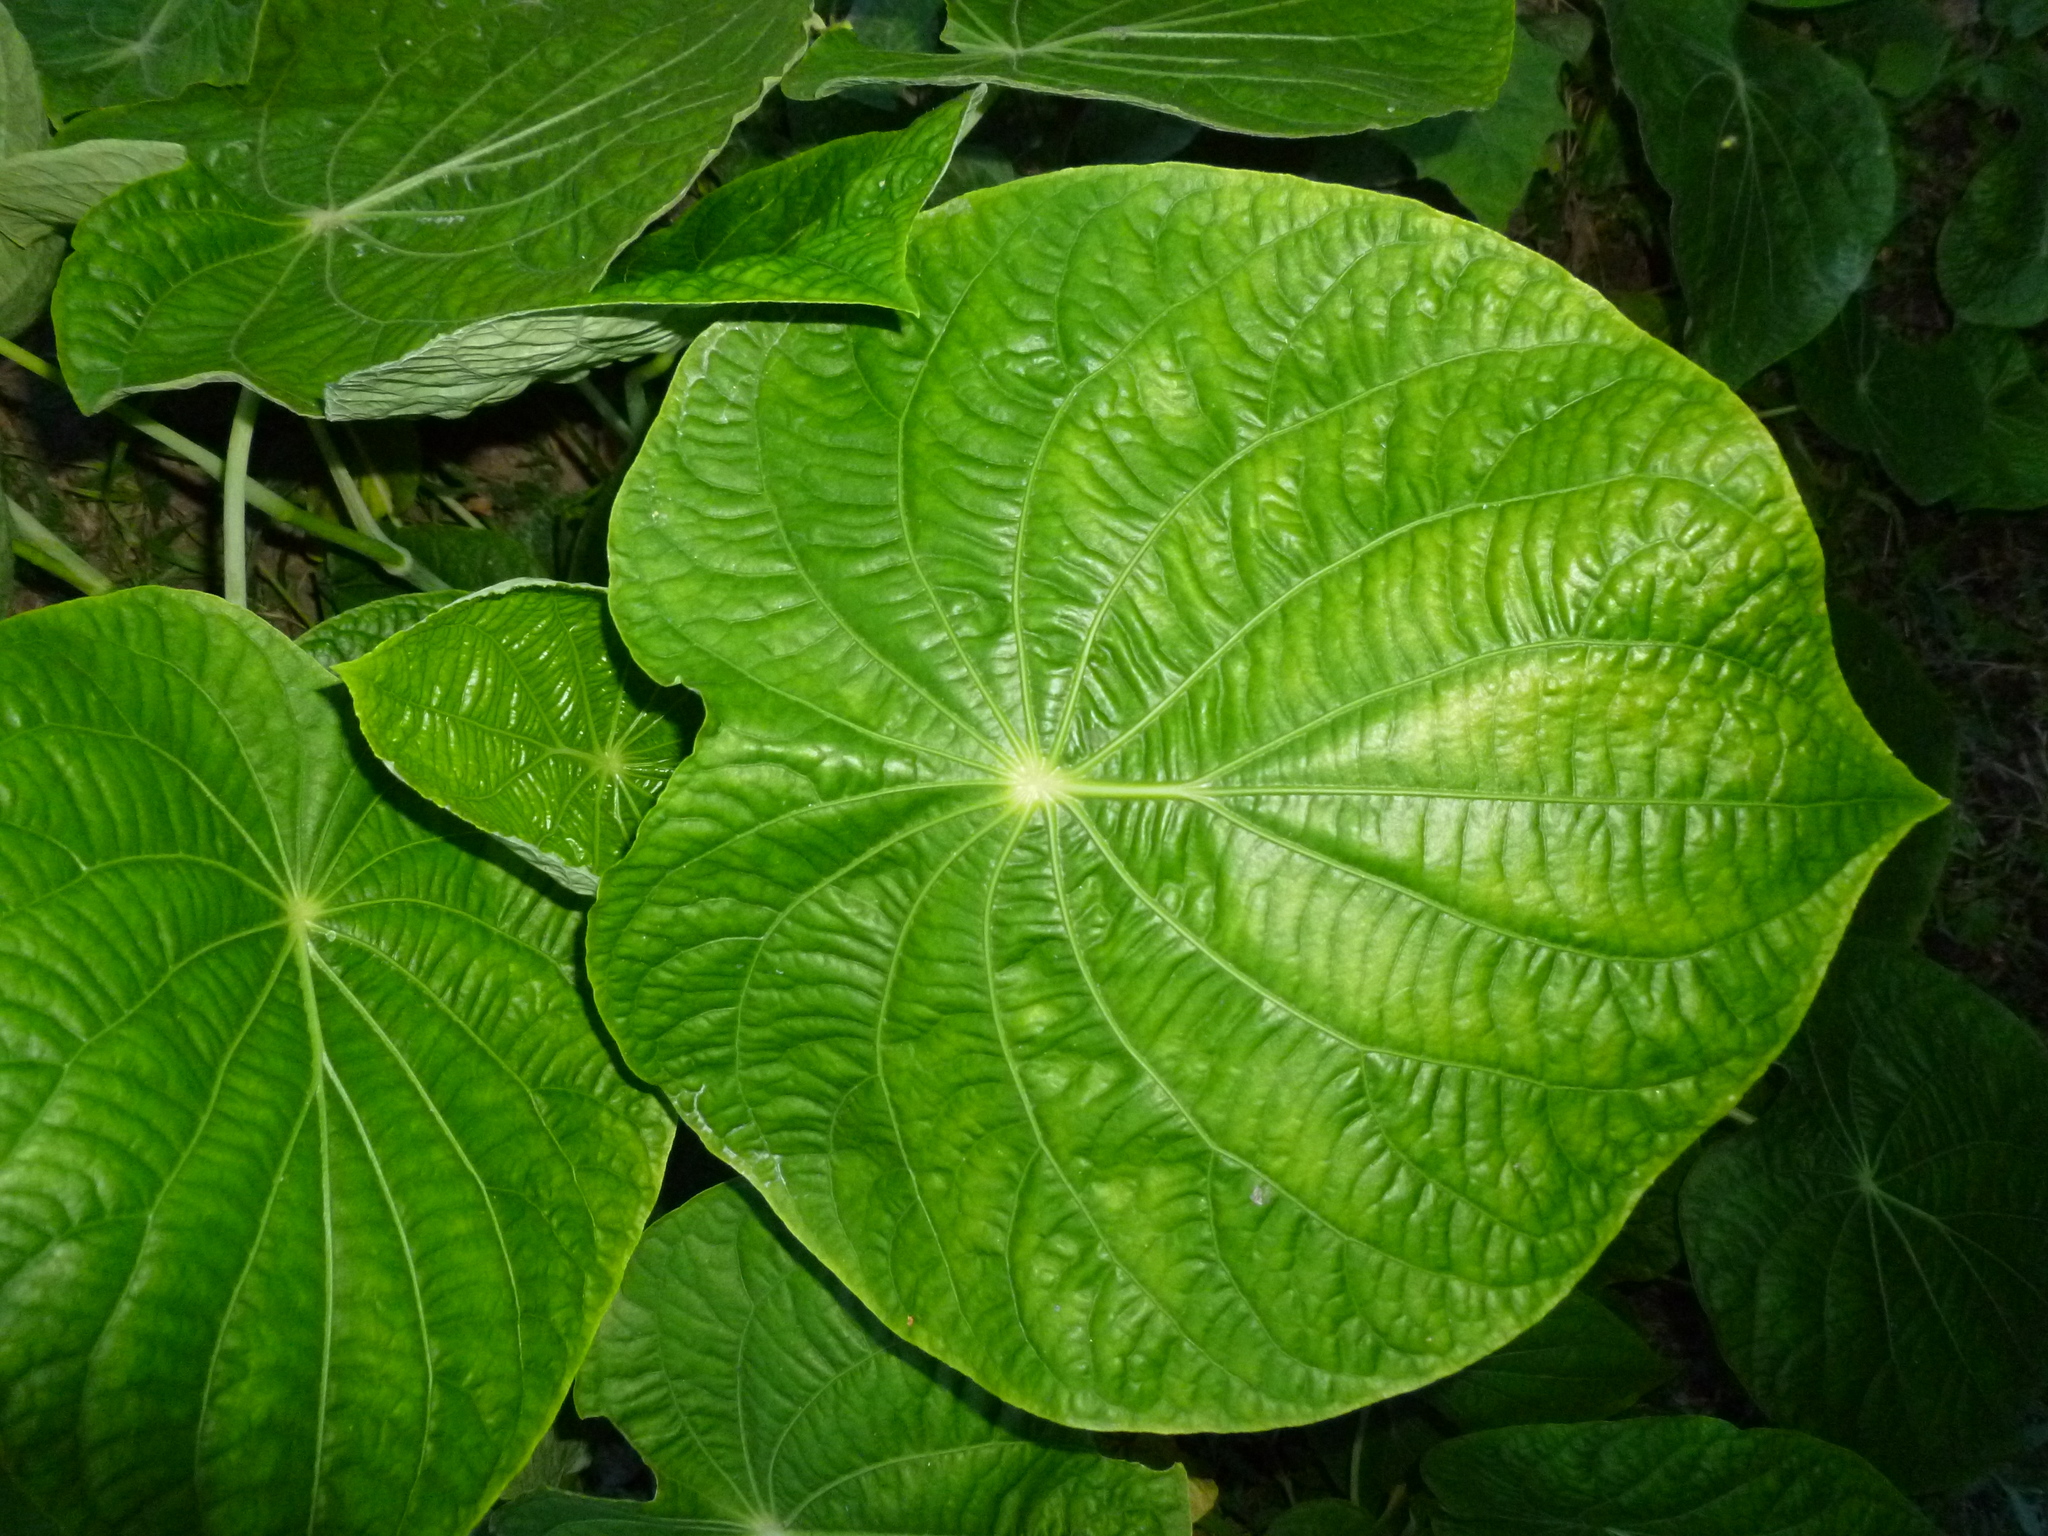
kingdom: Plantae
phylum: Tracheophyta
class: Magnoliopsida
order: Piperales
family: Piperaceae
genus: Piper
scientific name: Piper peltatum
